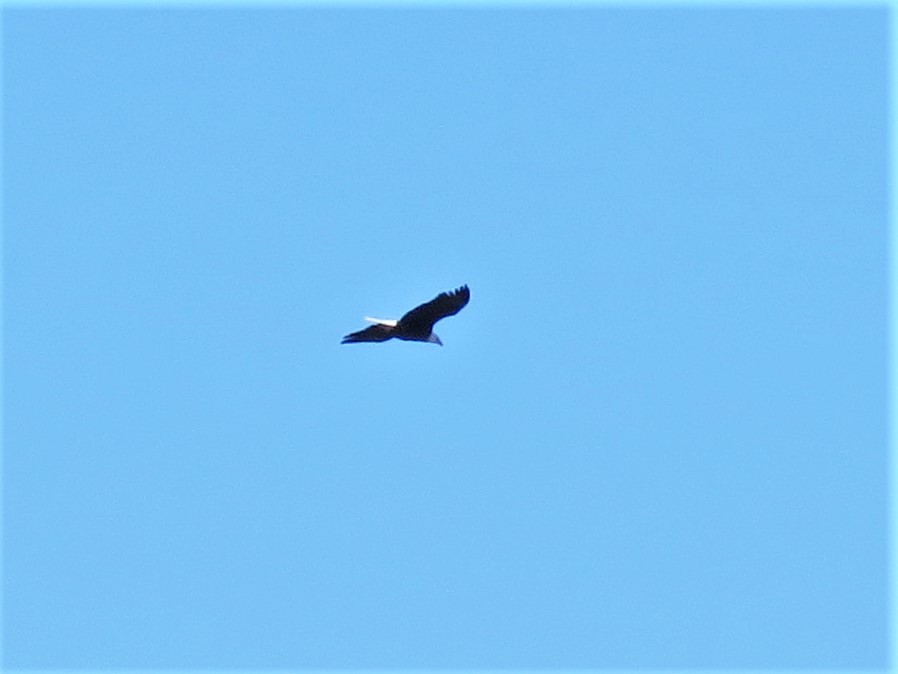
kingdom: Animalia
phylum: Chordata
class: Aves
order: Accipitriformes
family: Accipitridae
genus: Haliaeetus
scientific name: Haliaeetus leucocephalus
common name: Bald eagle
